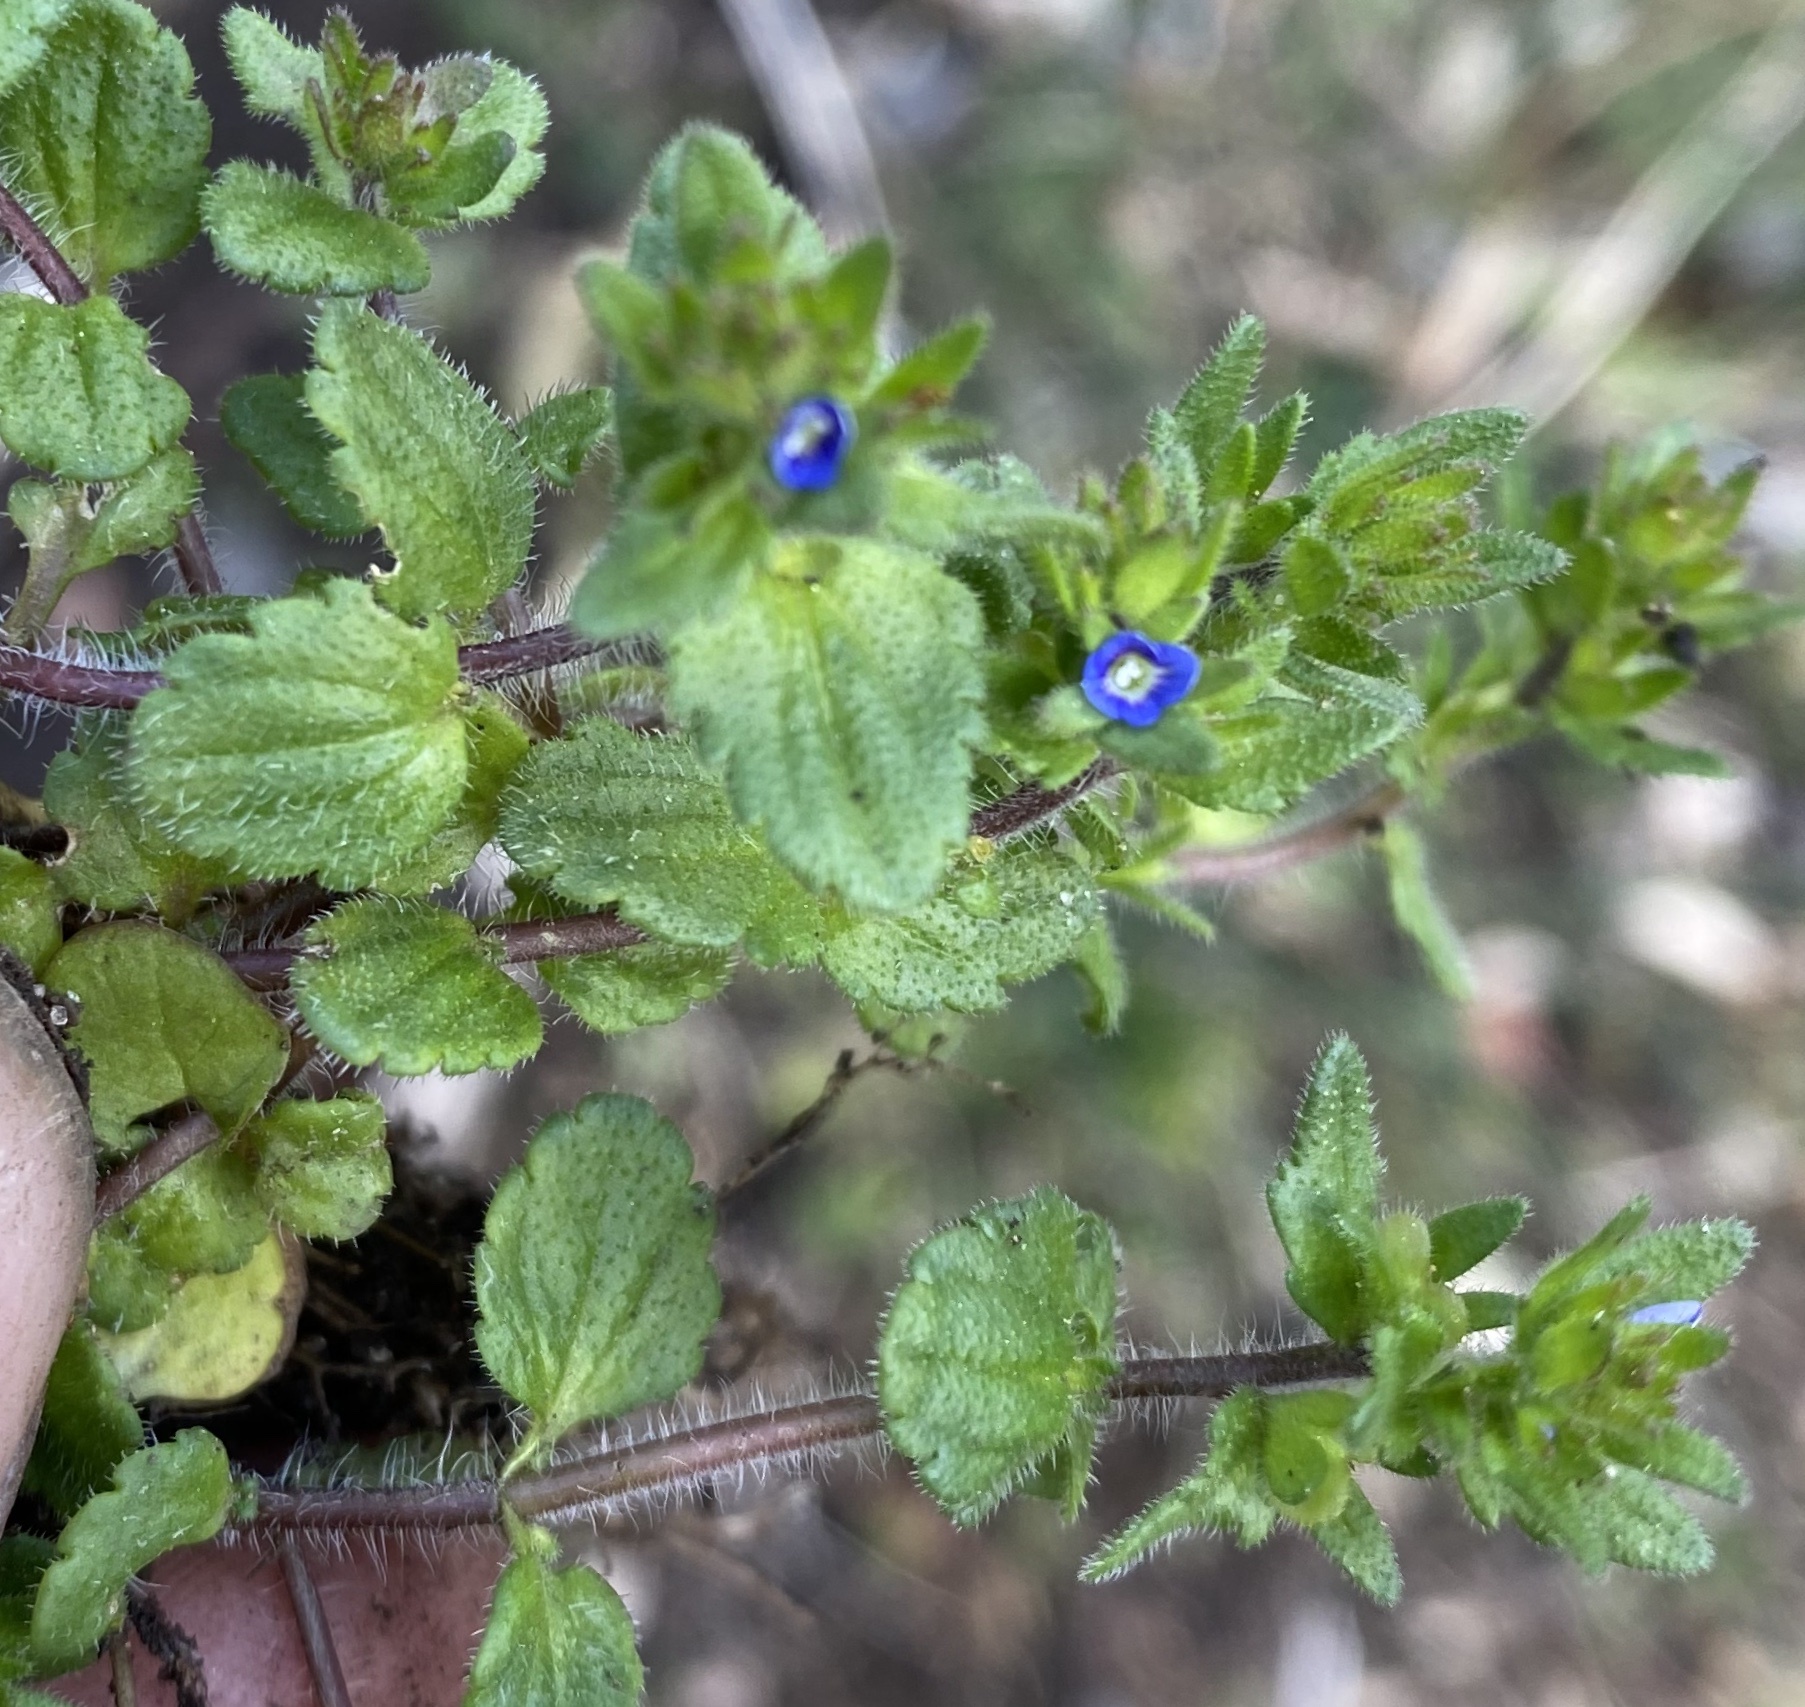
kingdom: Plantae
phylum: Tracheophyta
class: Magnoliopsida
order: Lamiales
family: Plantaginaceae
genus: Veronica
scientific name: Veronica arvensis
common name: Corn speedwell
